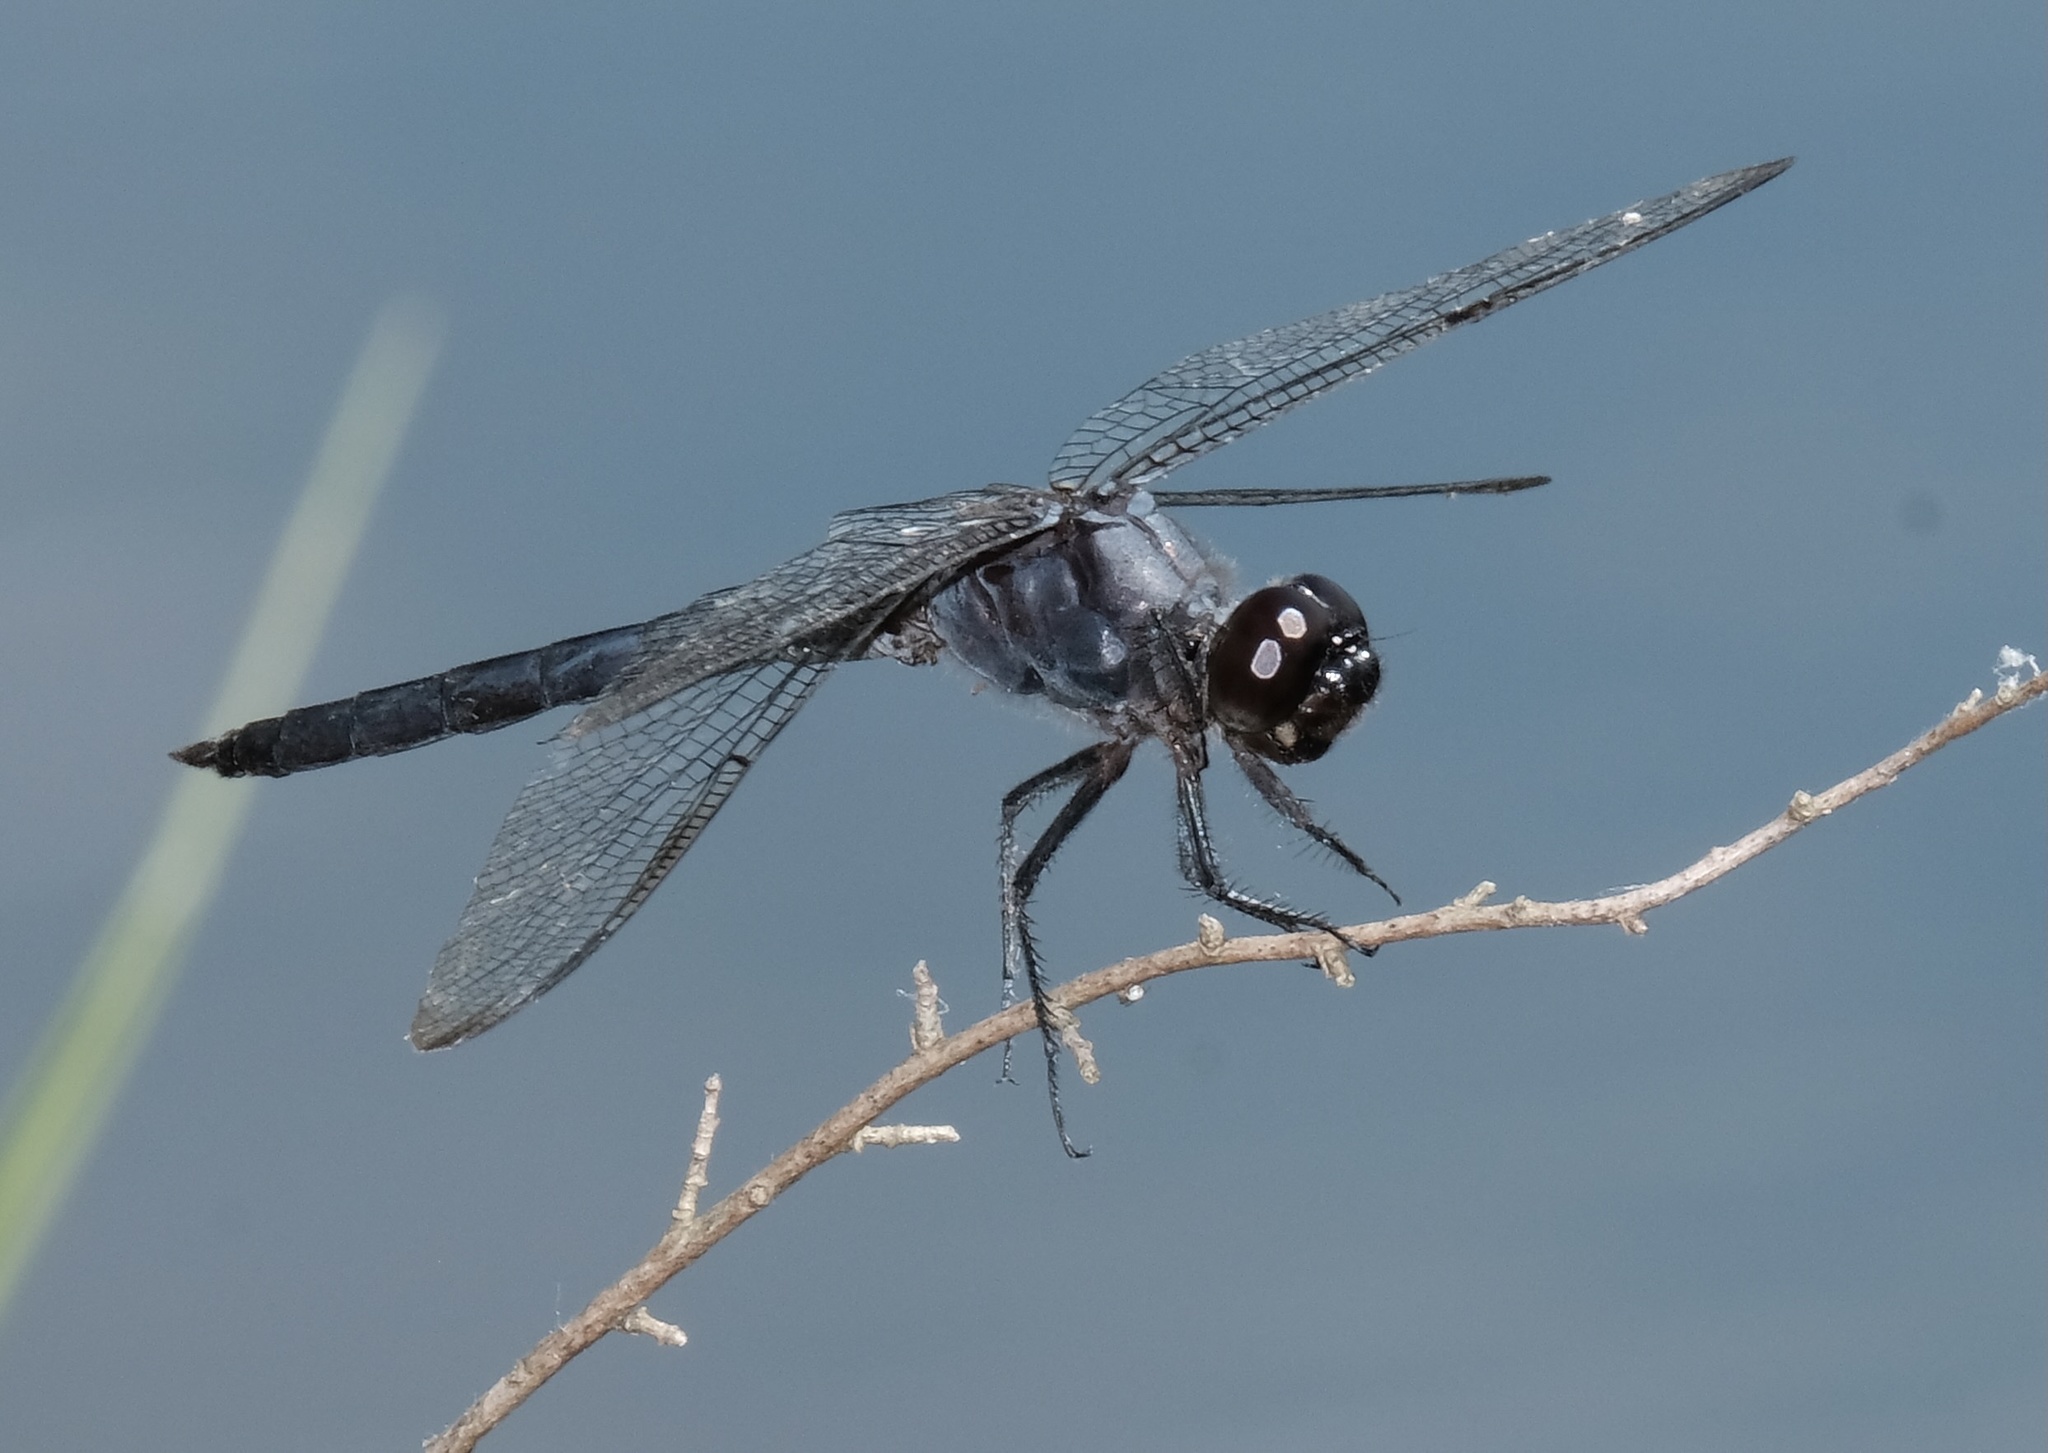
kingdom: Animalia
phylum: Arthropoda
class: Insecta
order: Odonata
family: Libellulidae
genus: Libellula
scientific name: Libellula incesta
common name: Slaty skimmer
